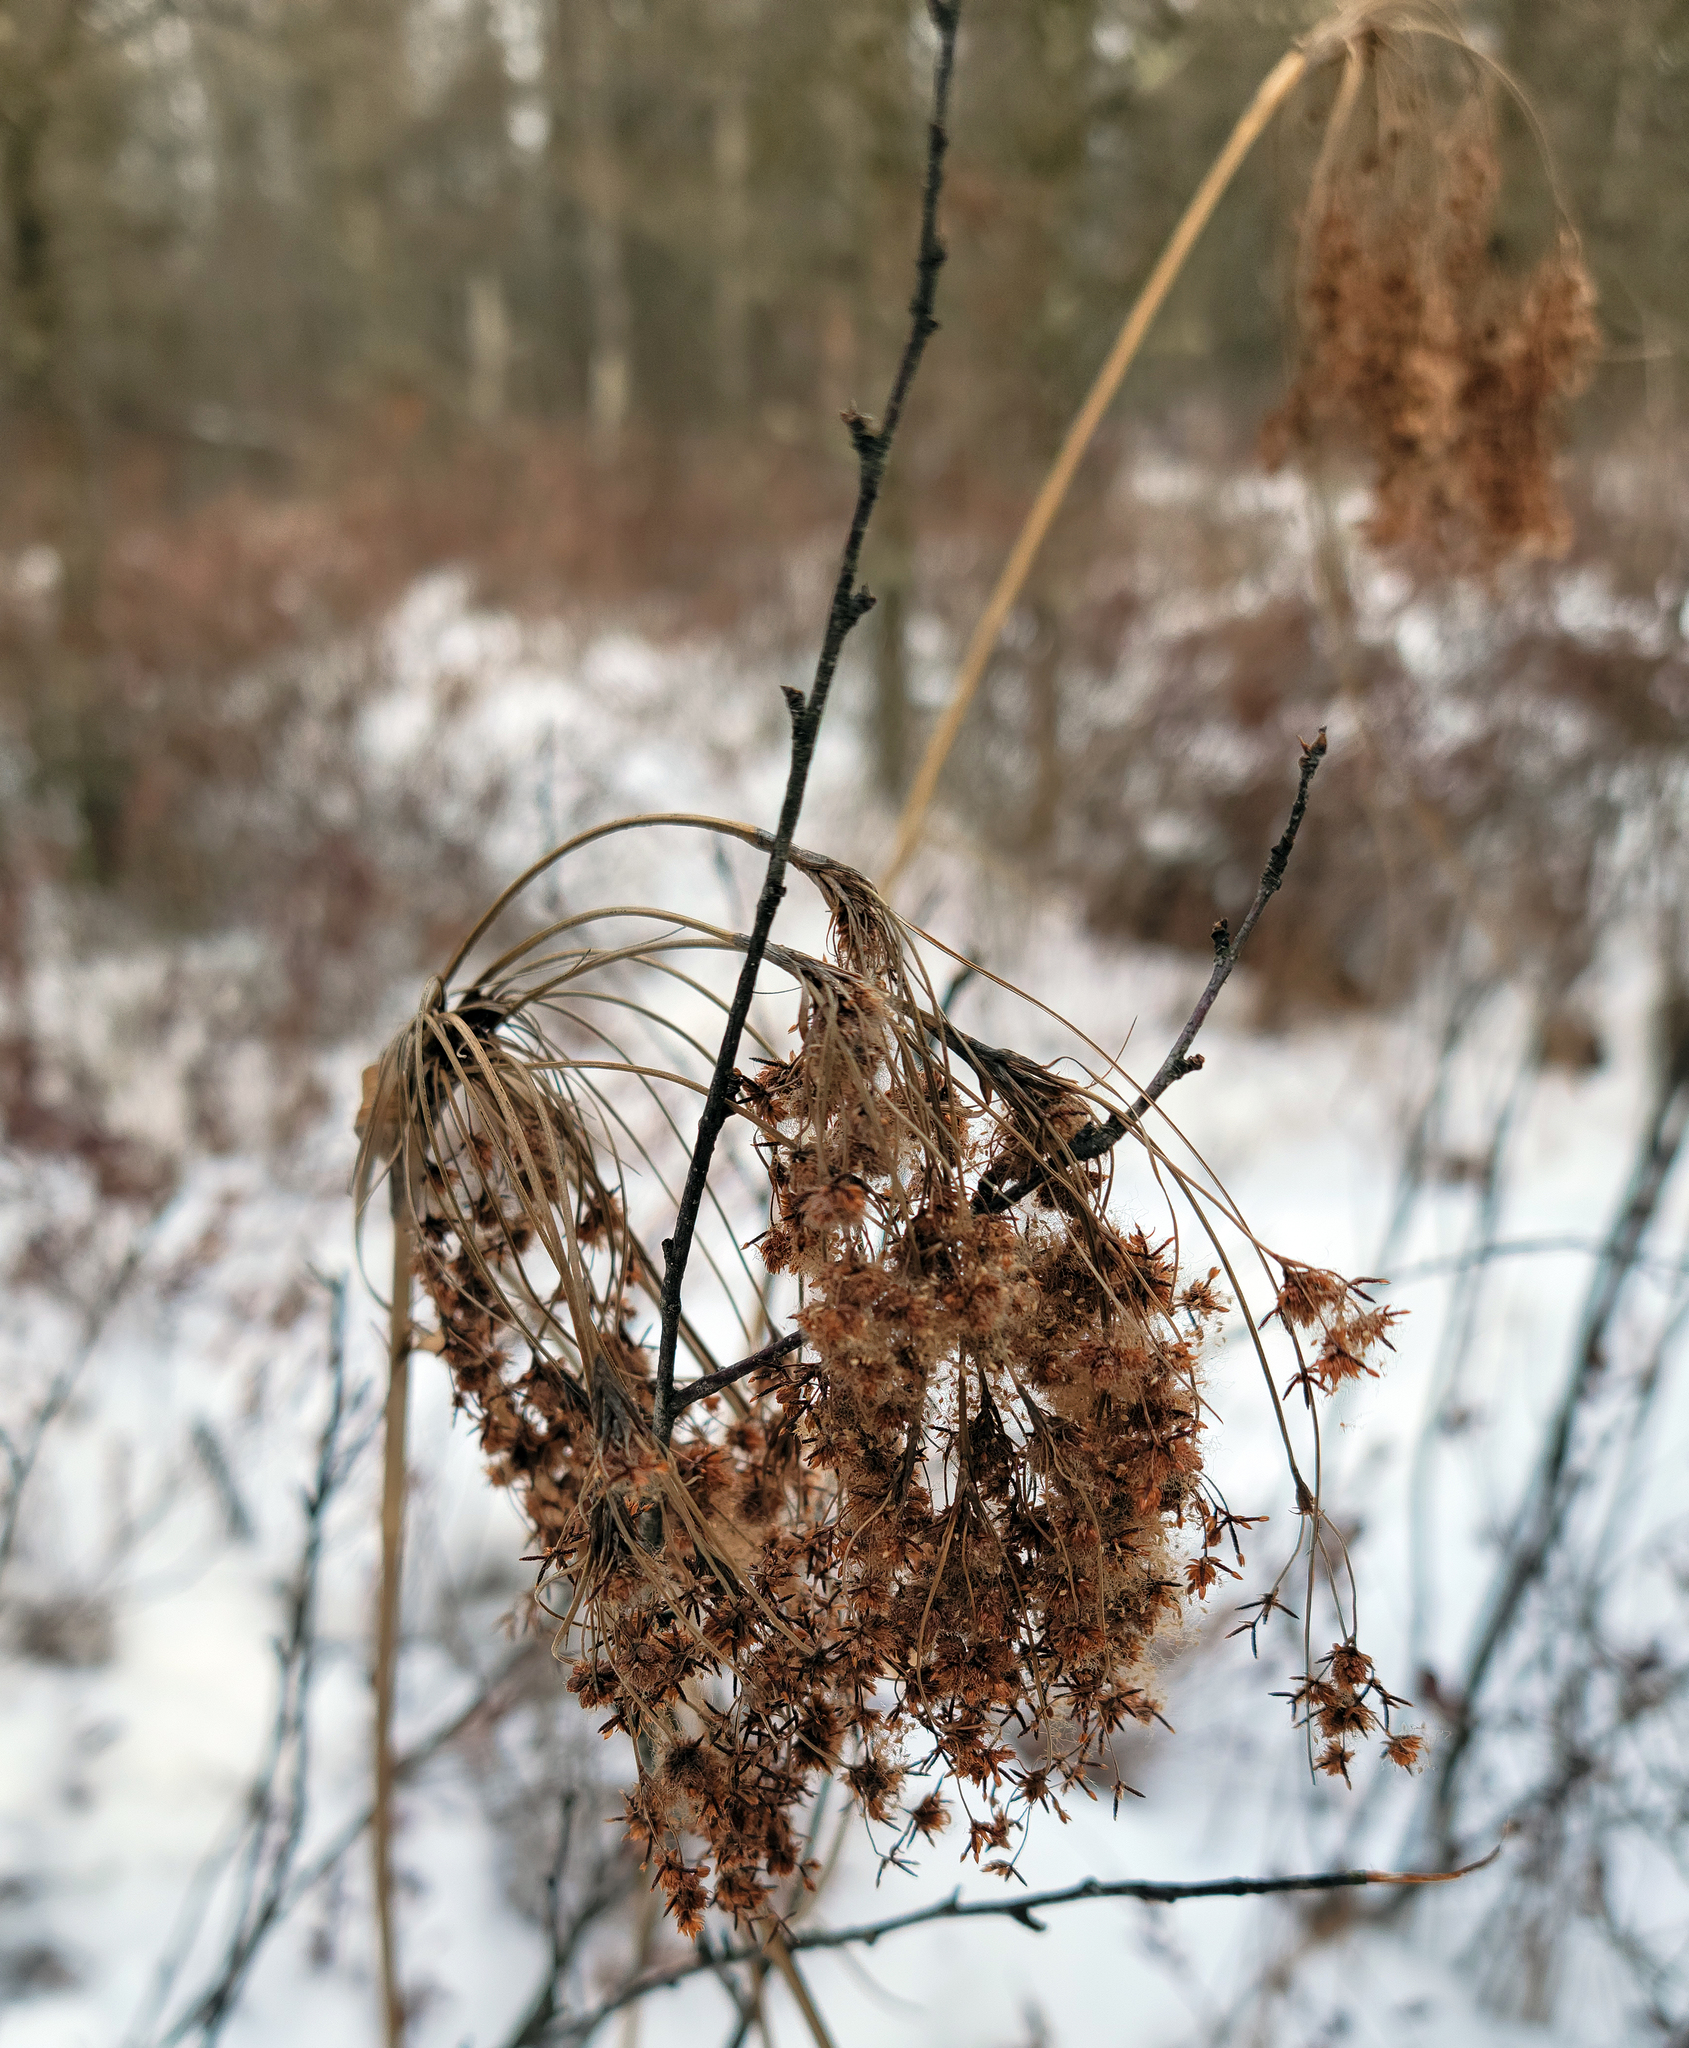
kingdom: Plantae
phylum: Tracheophyta
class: Liliopsida
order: Poales
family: Cyperaceae
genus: Scirpus
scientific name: Scirpus cyperinus
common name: Black-sheathed bulrush
